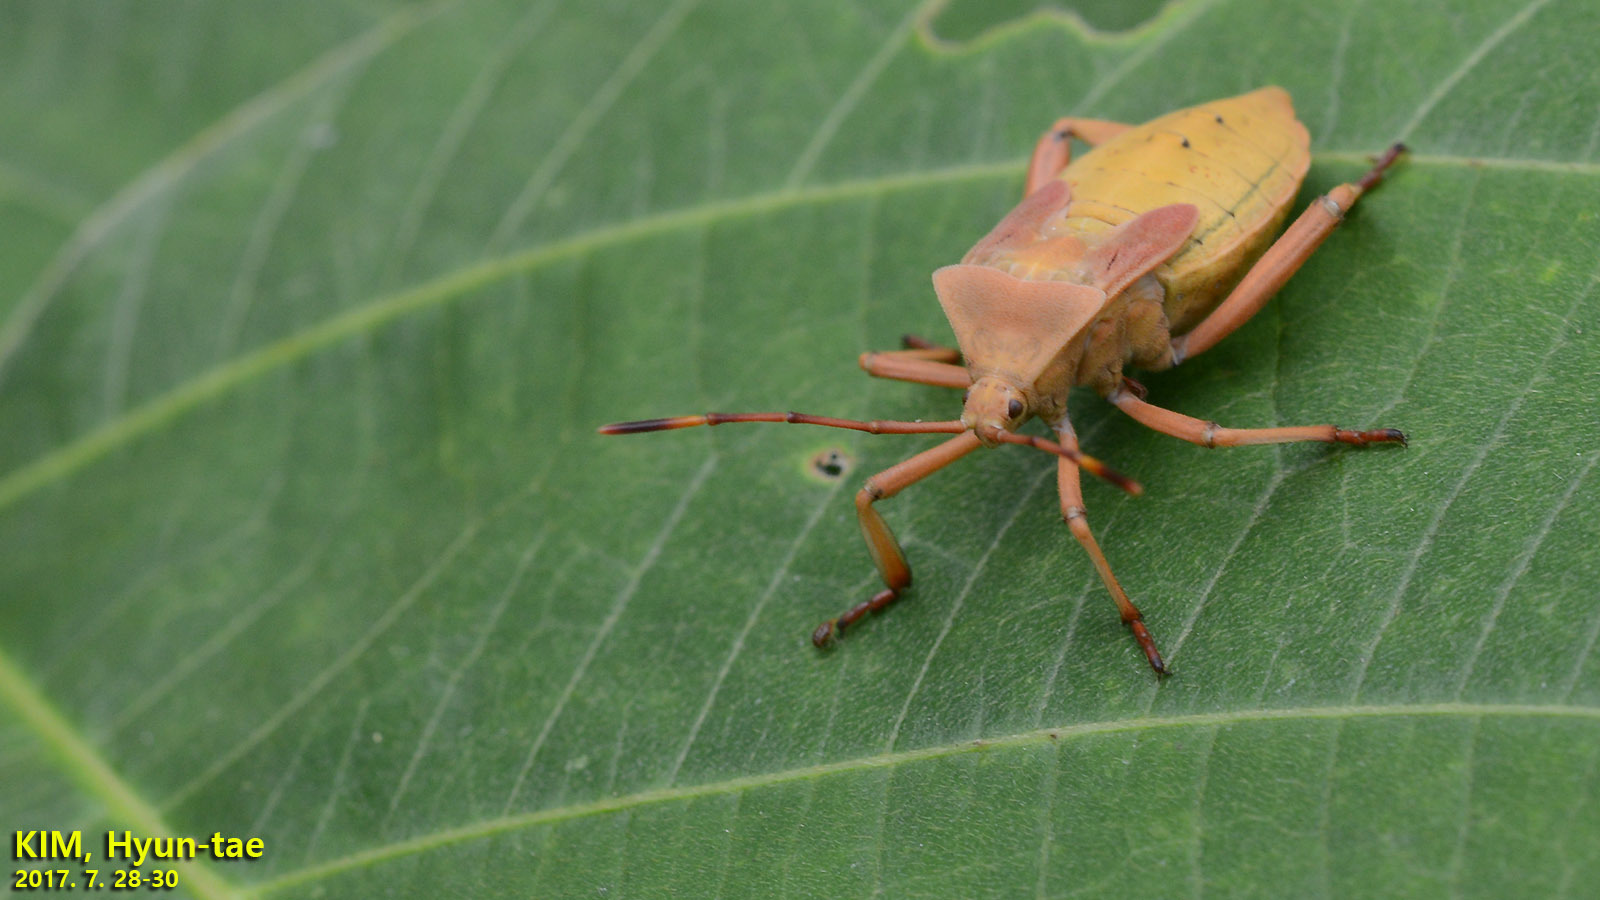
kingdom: Animalia
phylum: Arthropoda
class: Insecta
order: Hemiptera
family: Coreidae
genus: Anoplocnemis
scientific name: Anoplocnemis dallasi
